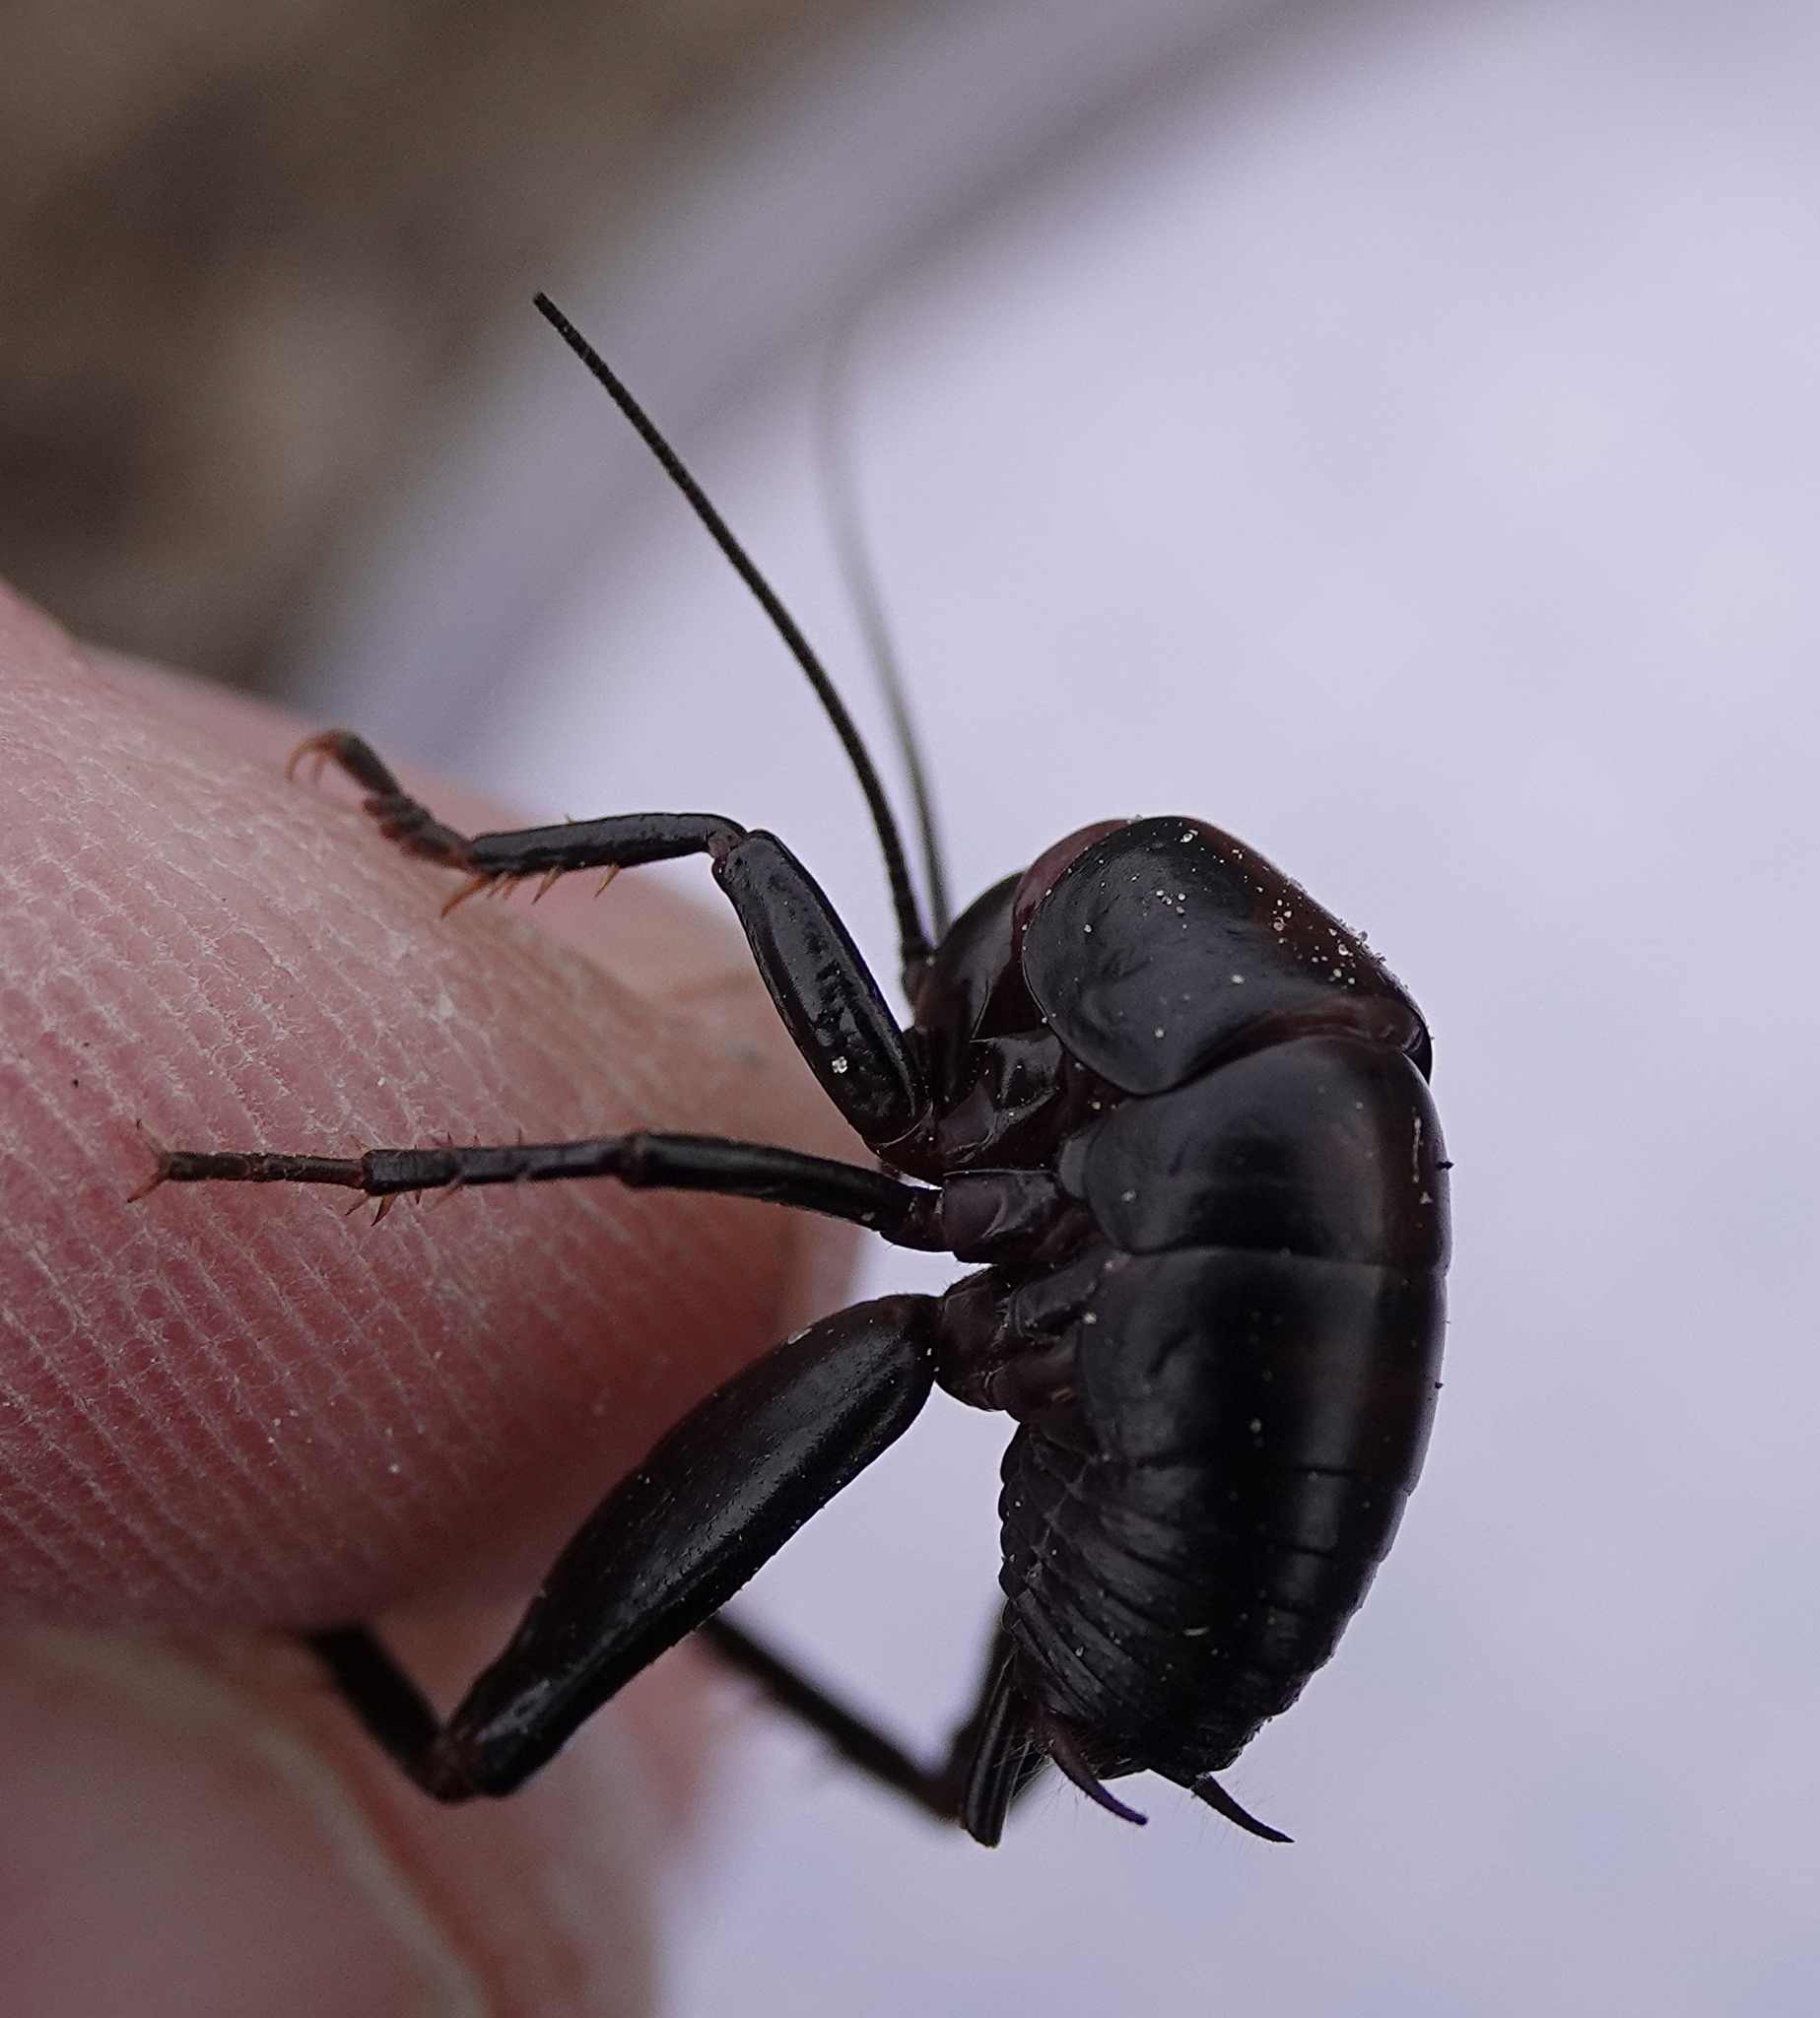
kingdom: Animalia
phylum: Arthropoda
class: Insecta
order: Orthoptera
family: Rhaphidophoridae
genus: Udeopsylla
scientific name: Udeopsylla robusta
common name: Robust camel cricket
